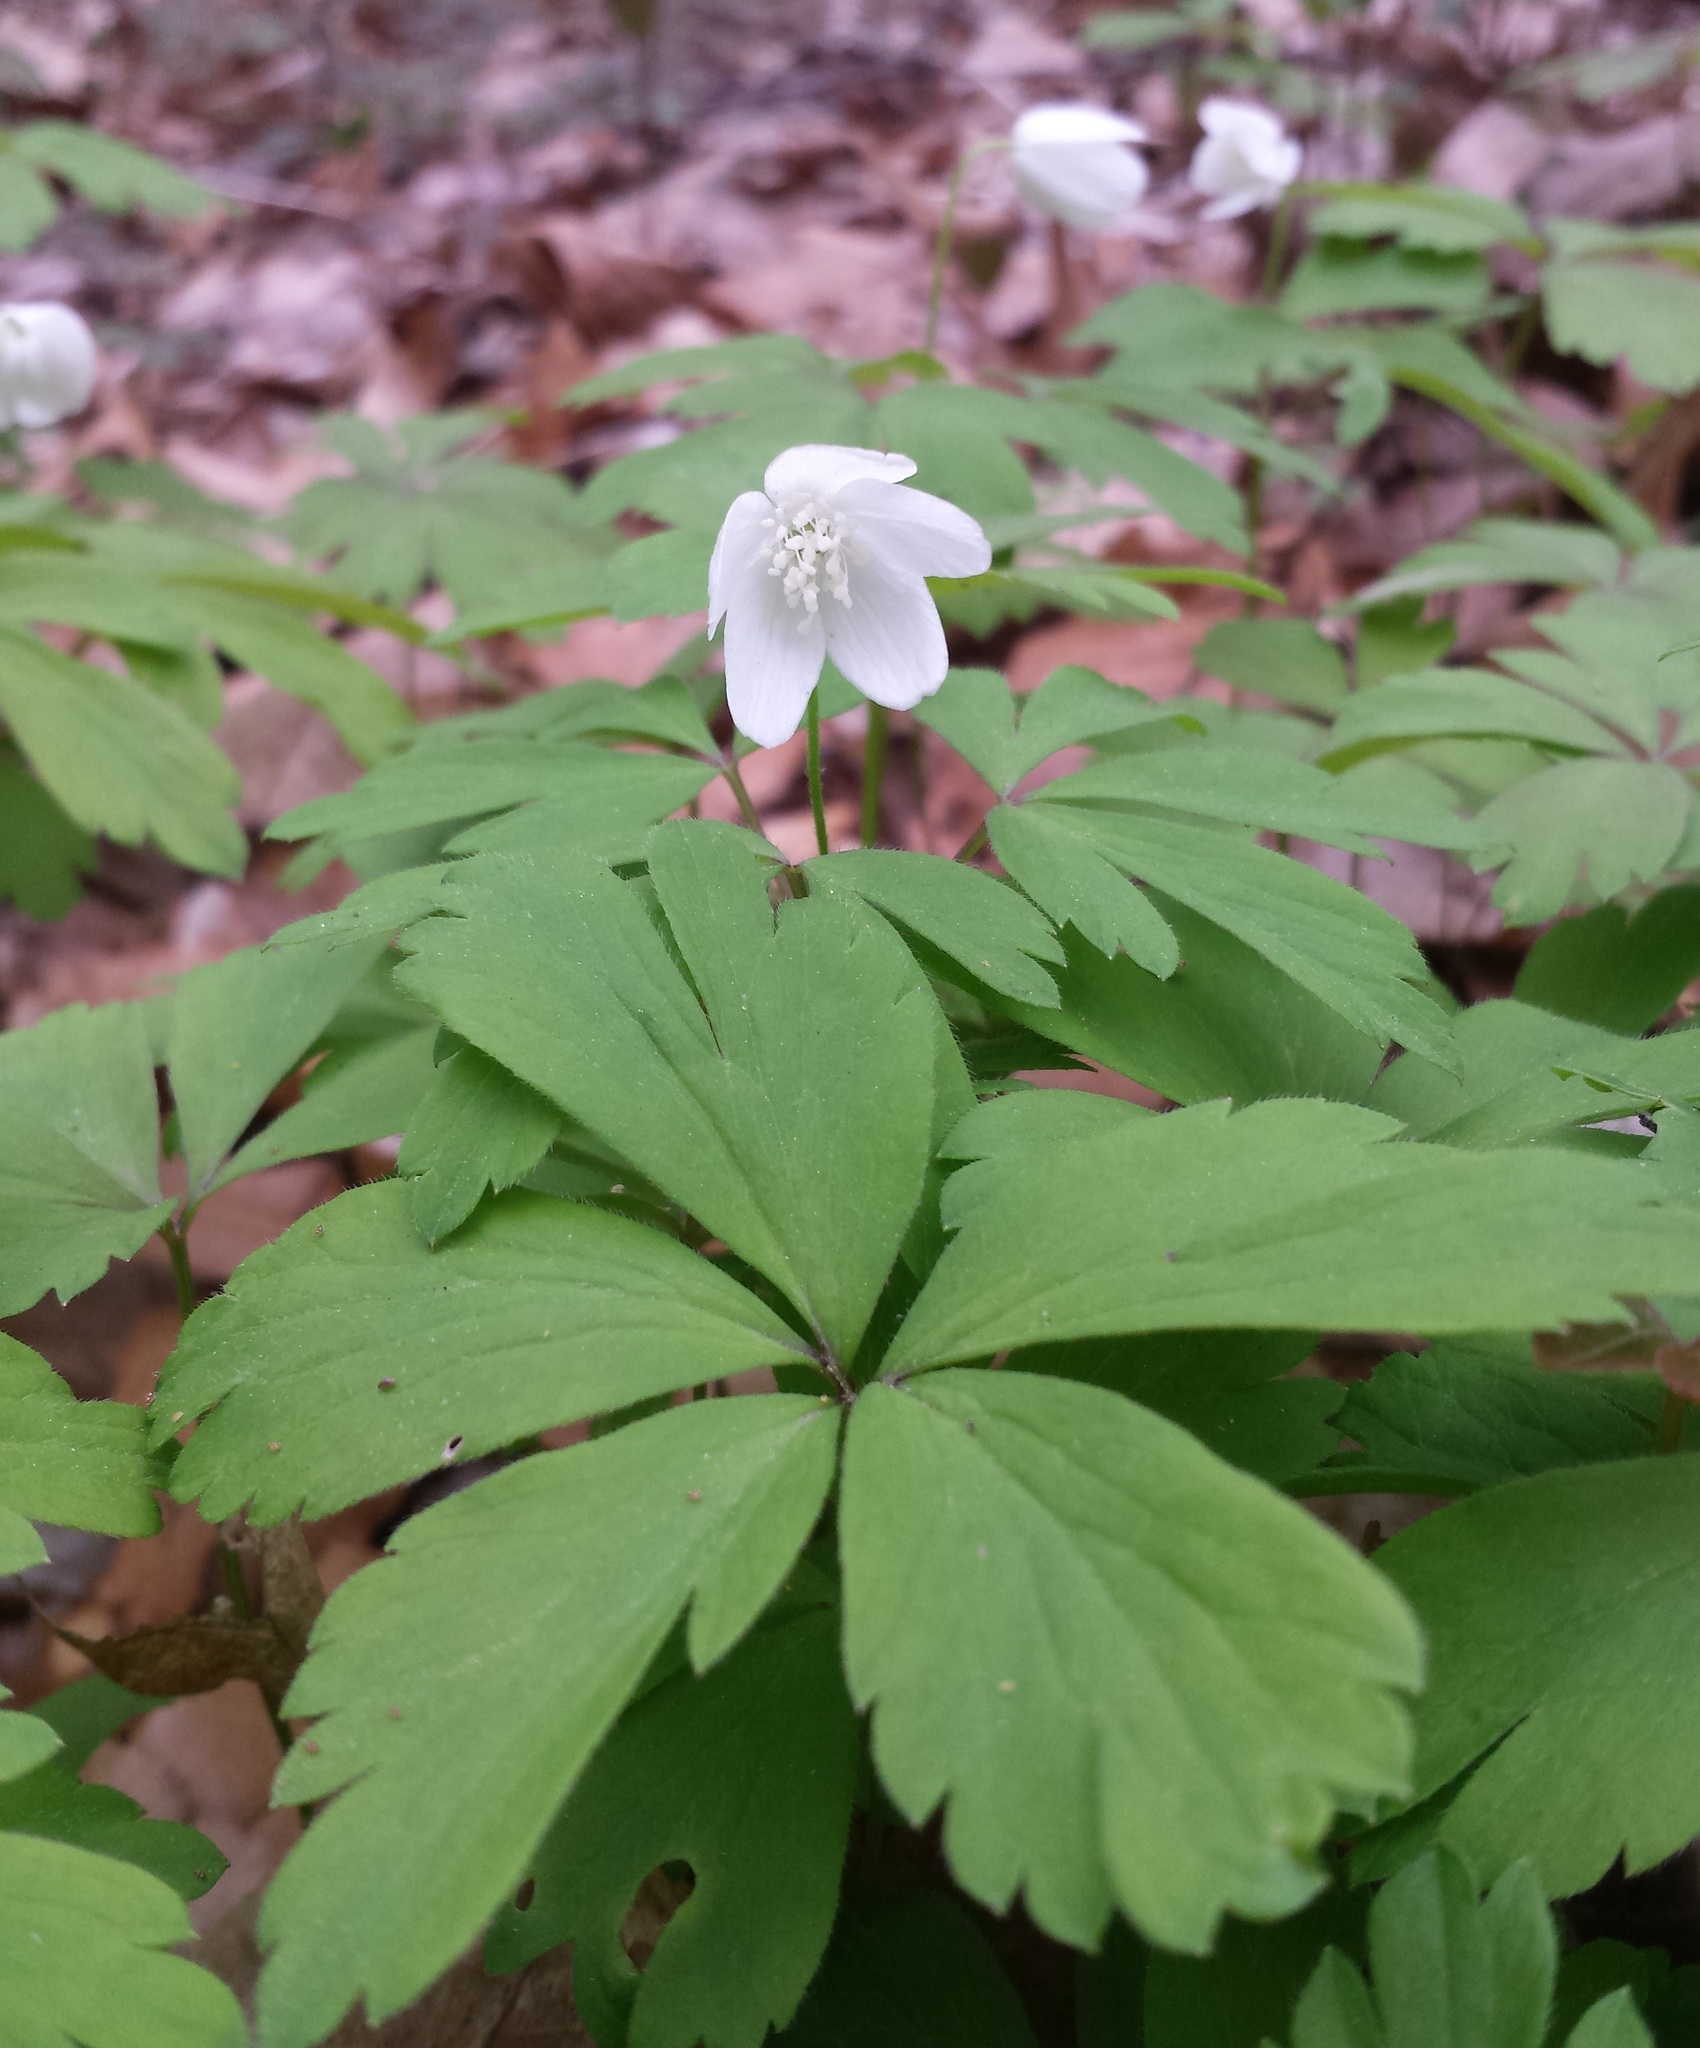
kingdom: Plantae
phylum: Tracheophyta
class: Magnoliopsida
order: Ranunculales
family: Ranunculaceae
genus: Anemone
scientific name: Anemone quinquefolia
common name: Wood anemone
